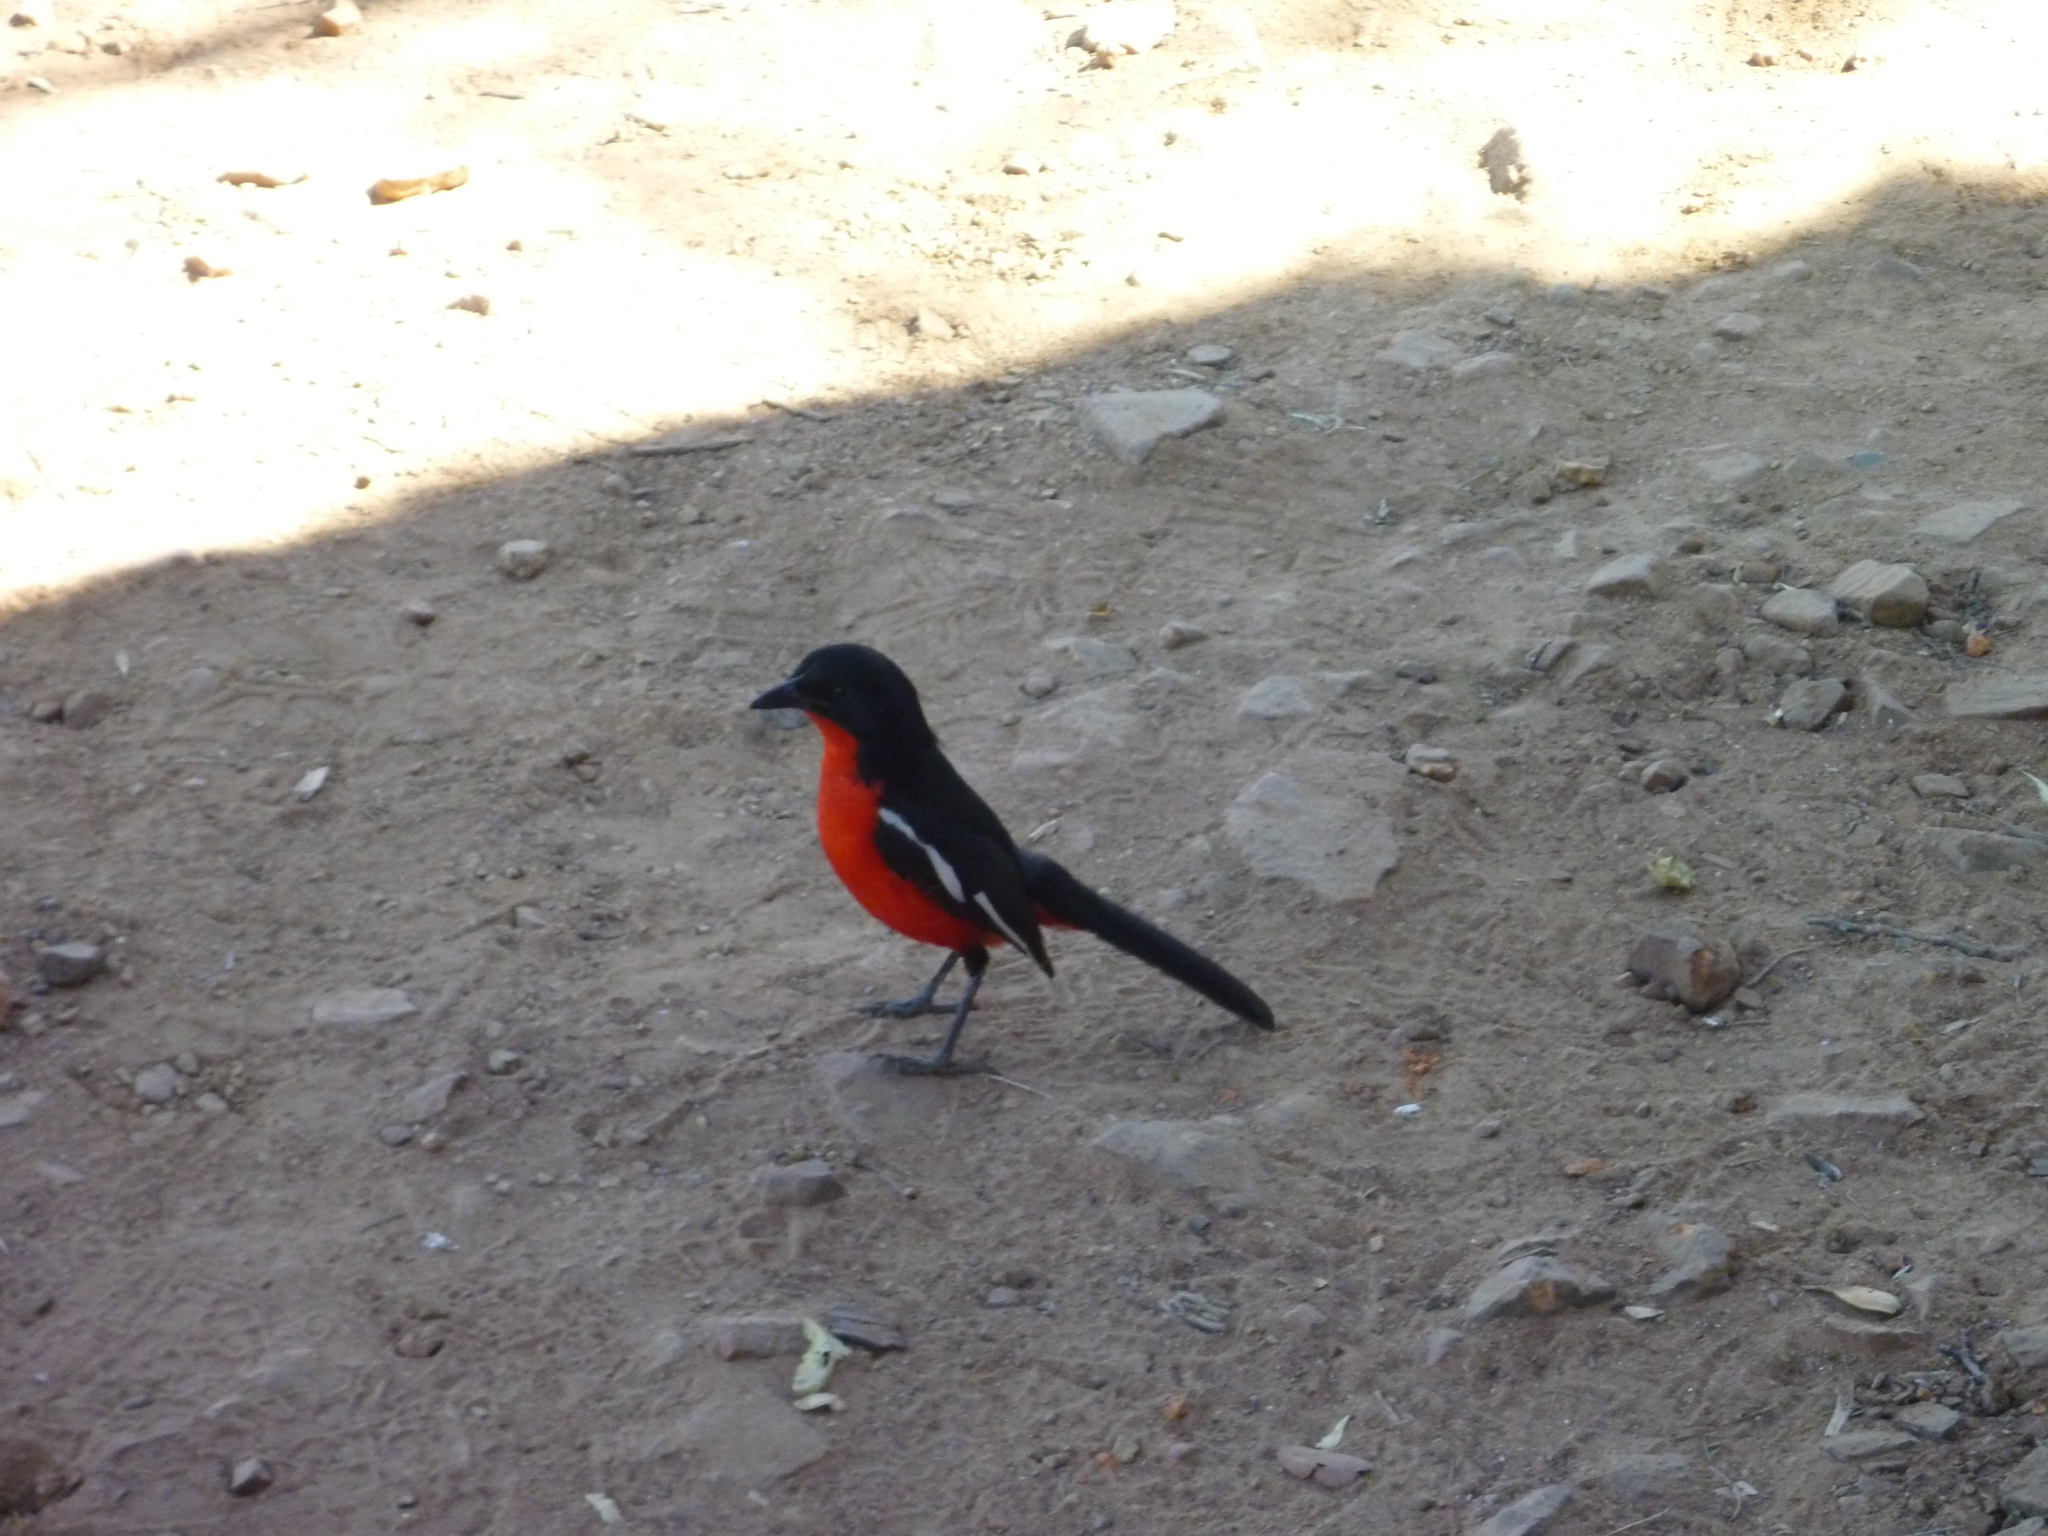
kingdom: Animalia
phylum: Chordata
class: Aves
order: Passeriformes
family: Malaconotidae
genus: Laniarius
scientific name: Laniarius atrococcineus
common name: Crimson-breasted shrike
